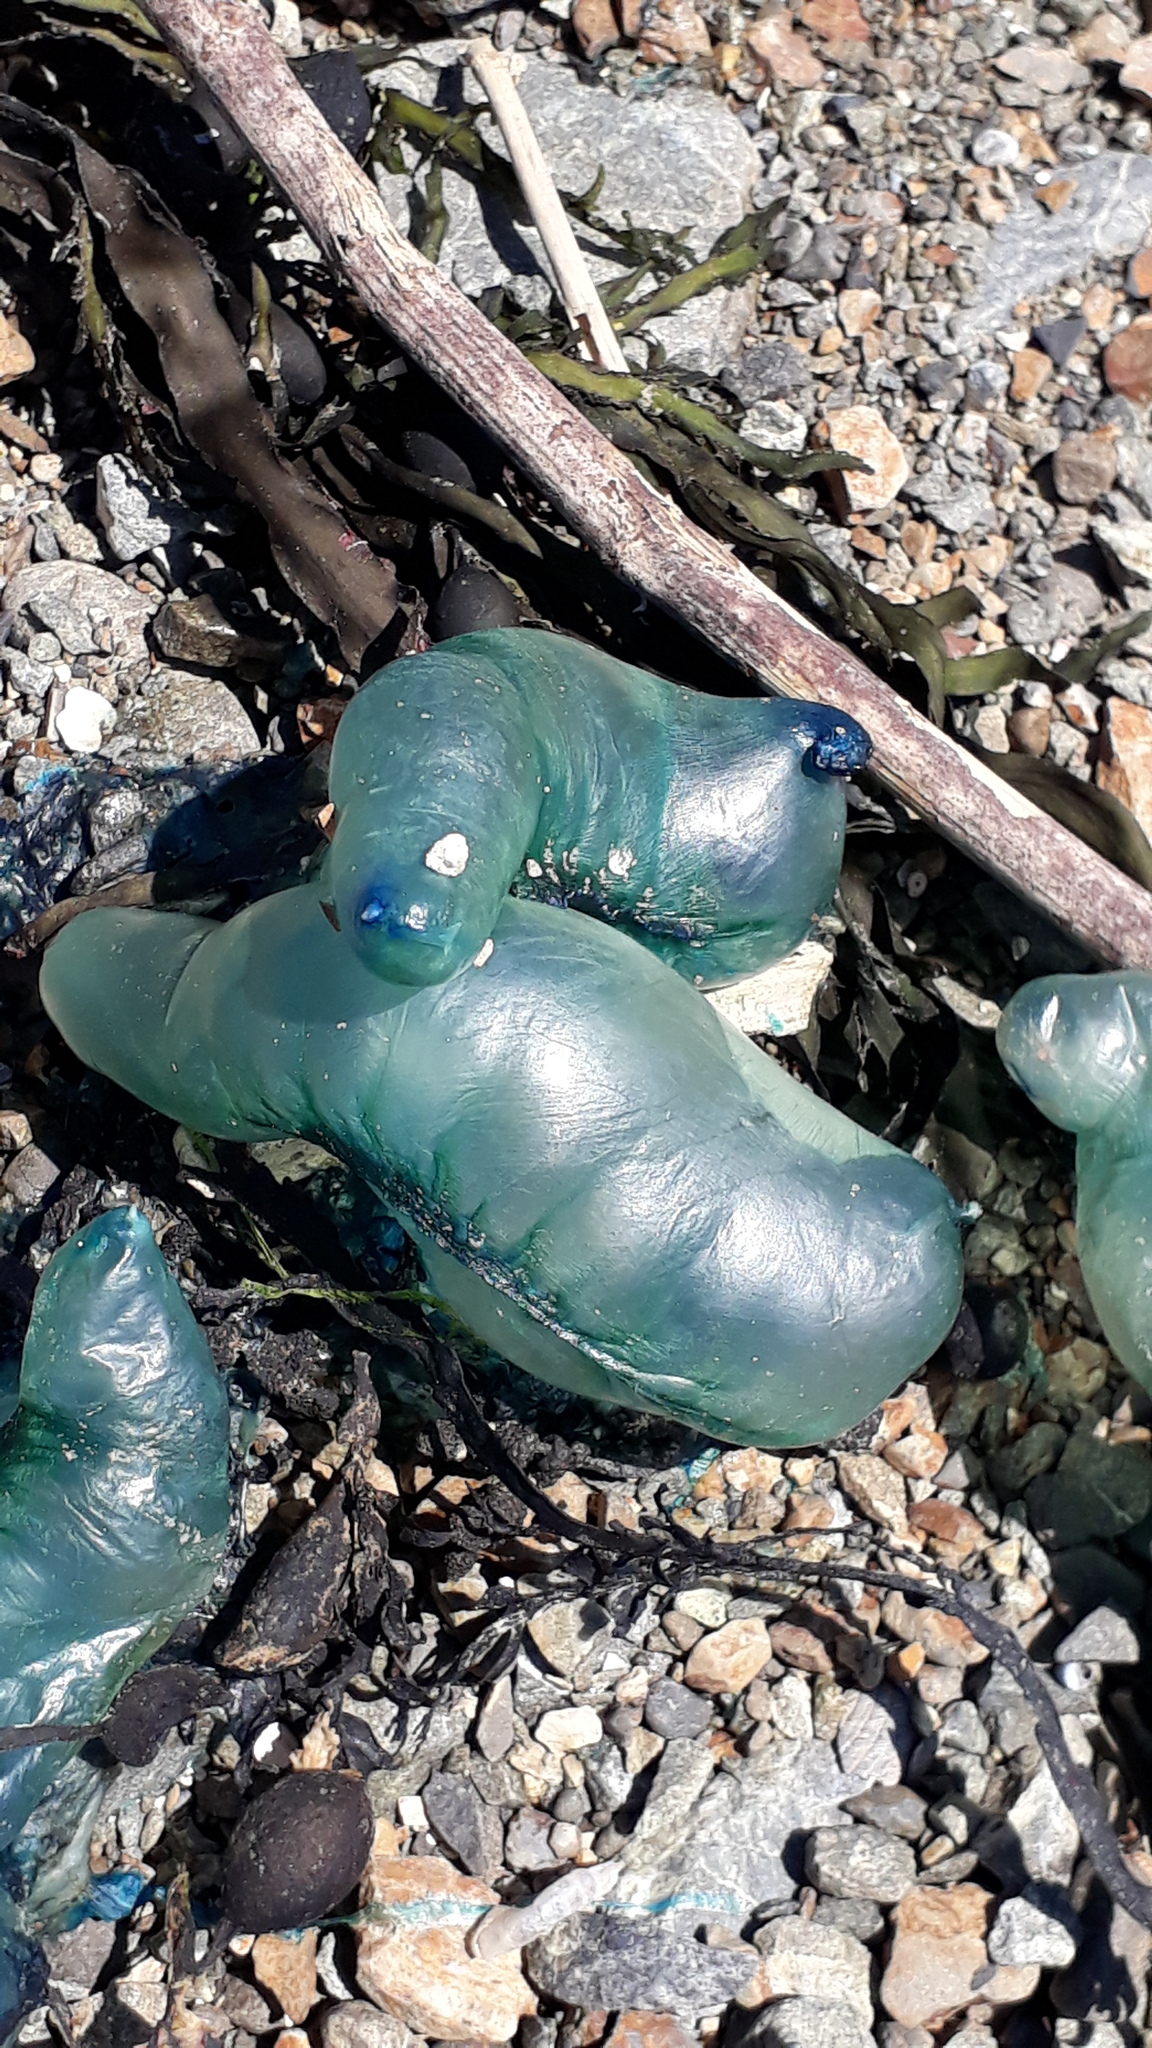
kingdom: Animalia
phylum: Cnidaria
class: Hydrozoa
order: Siphonophorae
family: Physaliidae
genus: Physalia
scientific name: Physalia physalis
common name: Portuguese man-of-war
